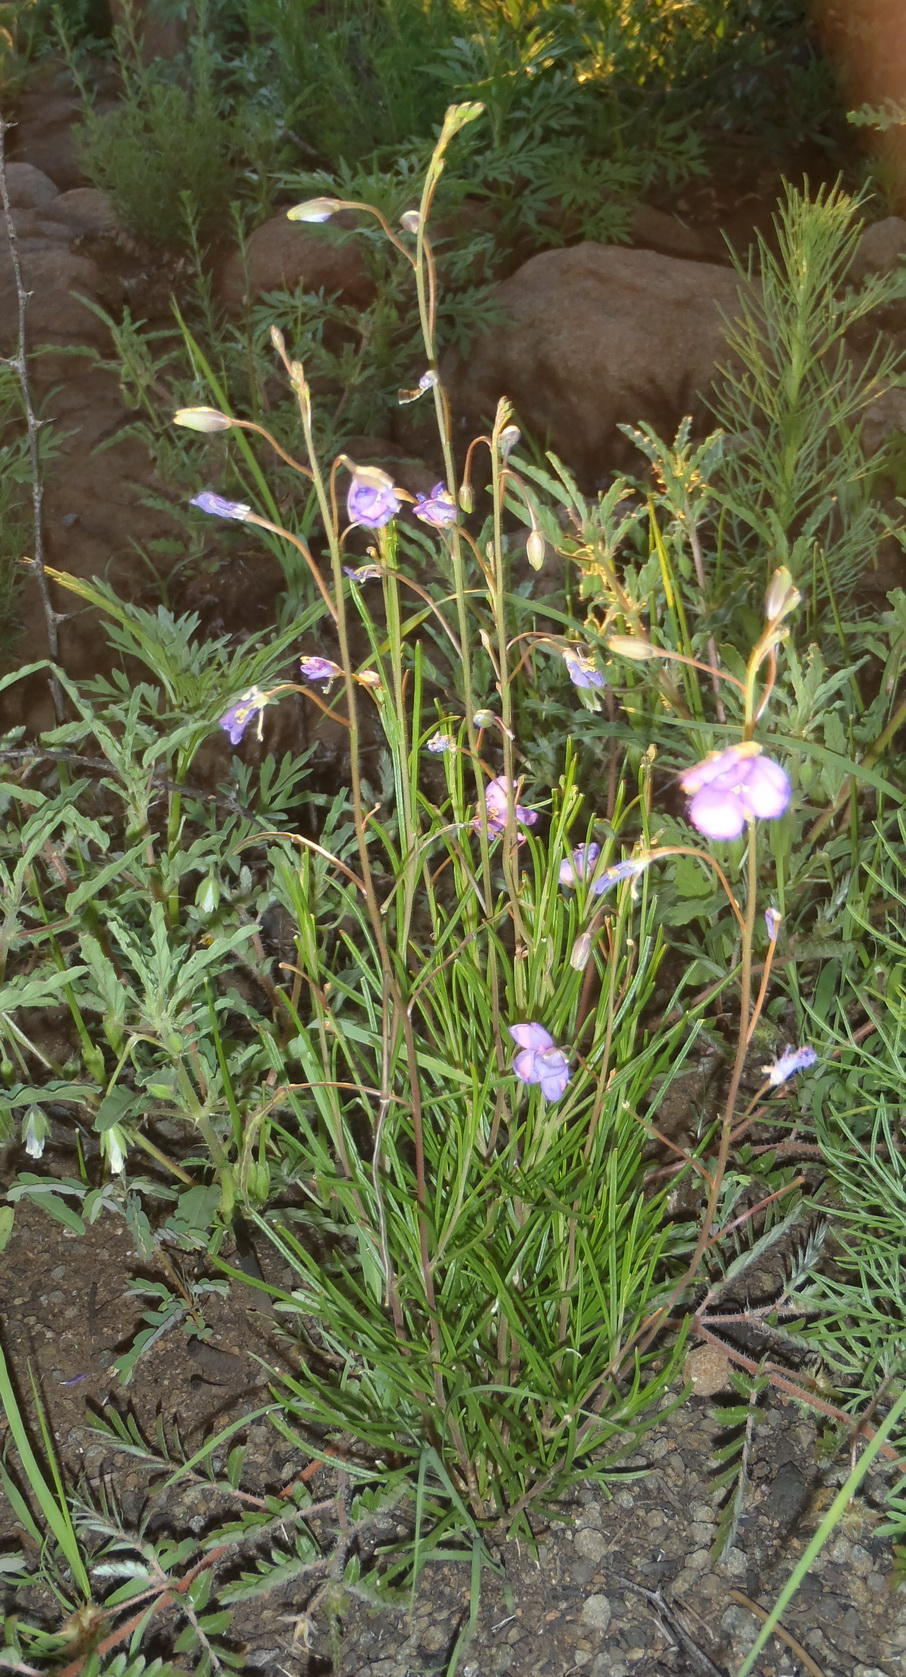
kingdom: Plantae
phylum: Tracheophyta
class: Magnoliopsida
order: Brassicales
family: Brassicaceae
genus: Heliophila
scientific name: Heliophila suavissima
